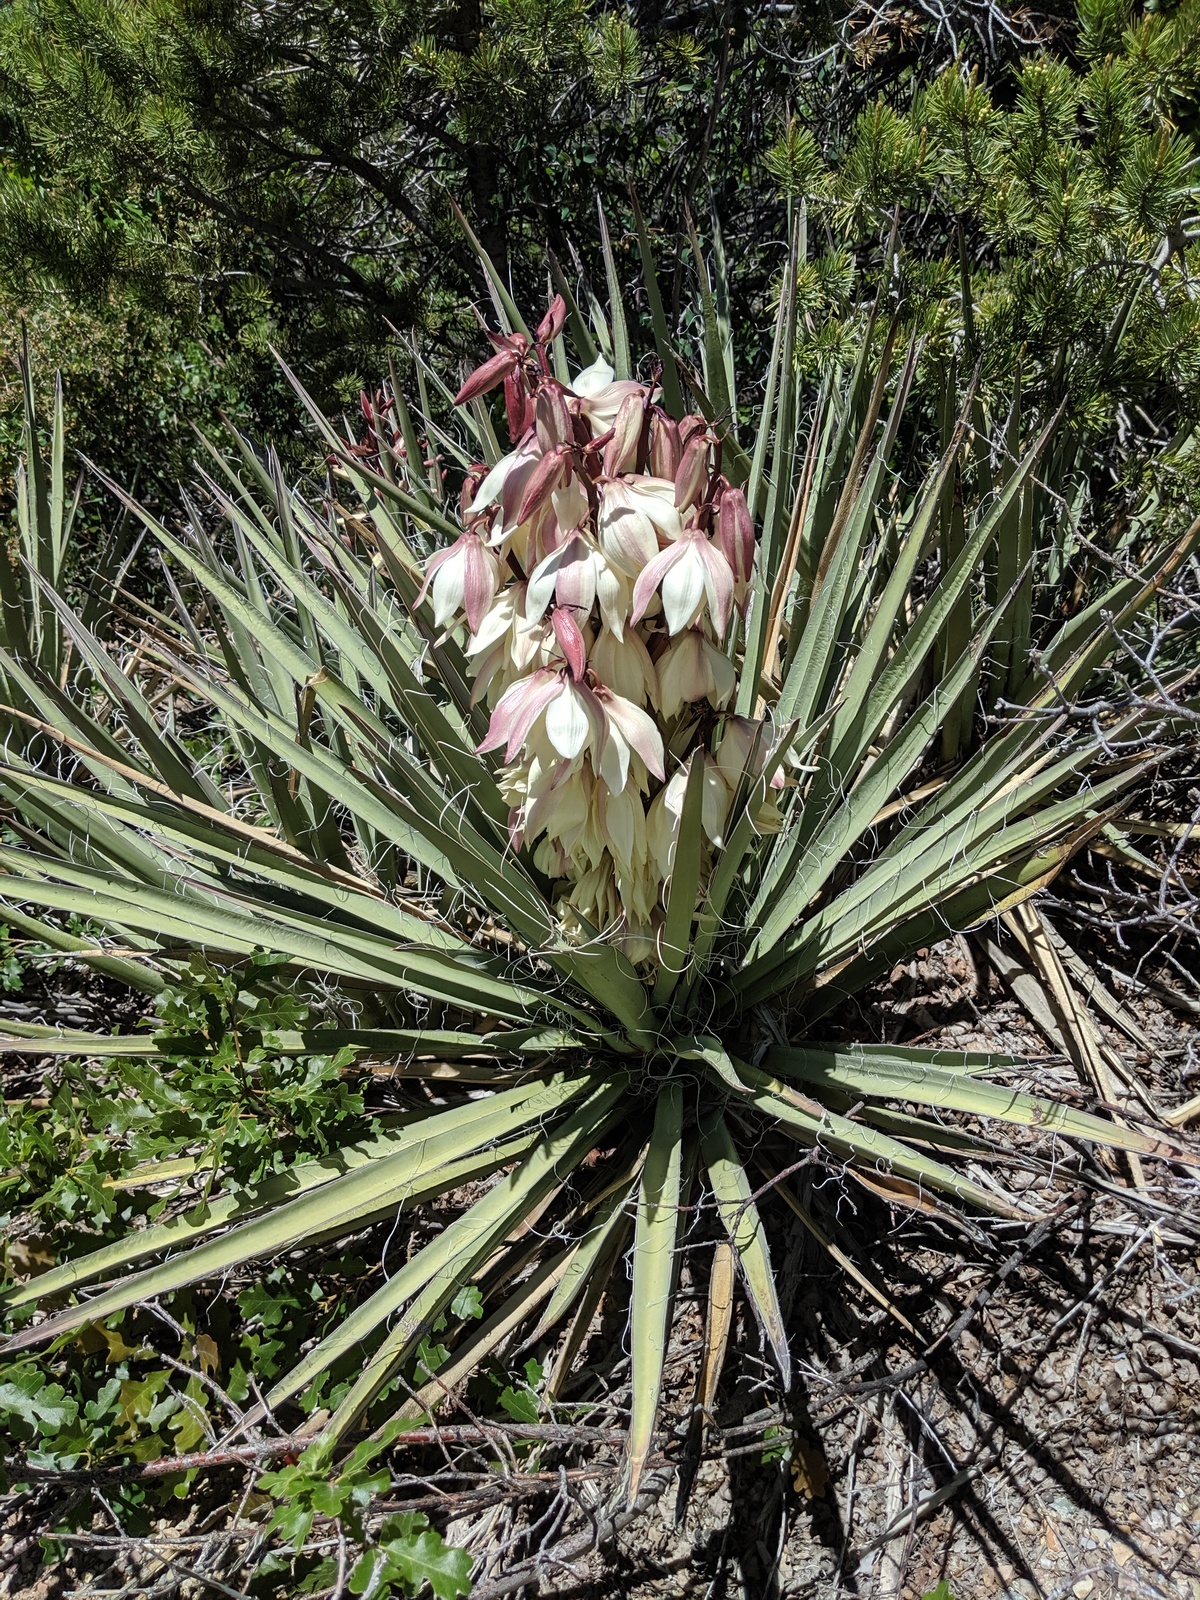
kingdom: Plantae
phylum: Tracheophyta
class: Liliopsida
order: Asparagales
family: Asparagaceae
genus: Yucca
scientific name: Yucca baccata
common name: Banana yucca
